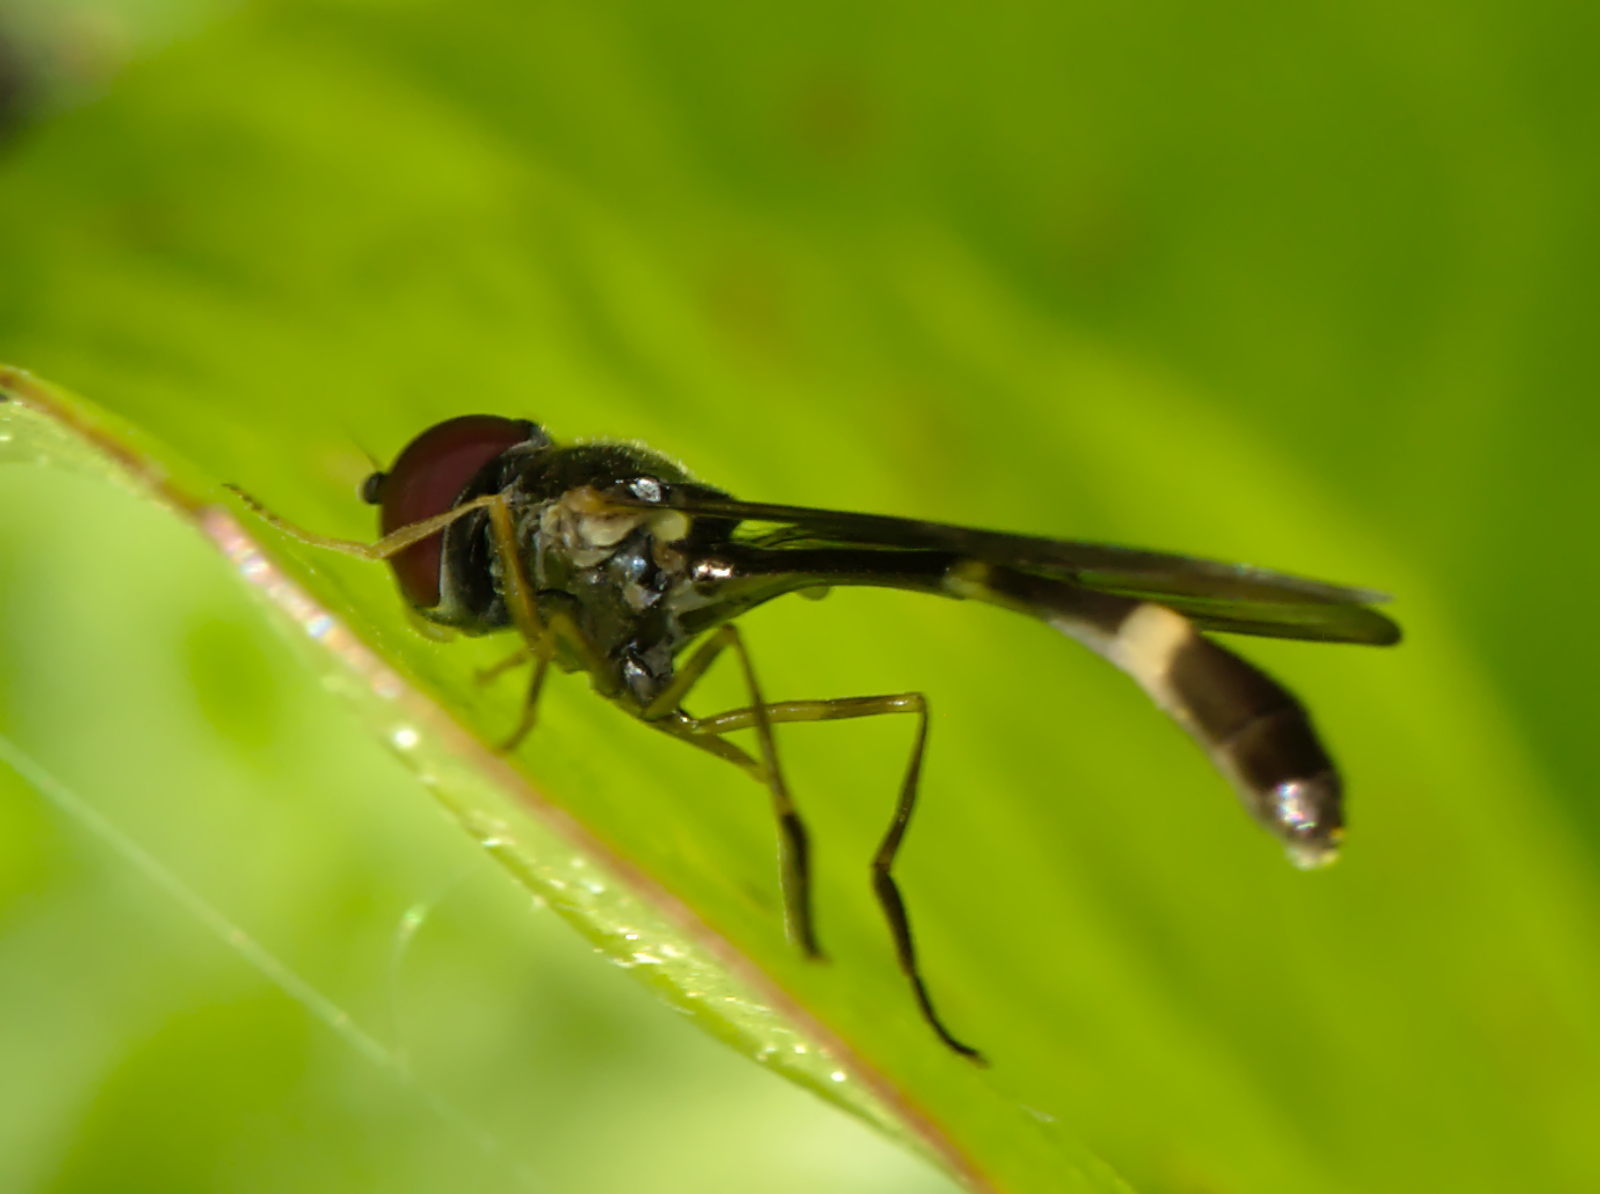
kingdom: Animalia
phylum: Arthropoda
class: Insecta
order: Diptera
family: Syrphidae
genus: Baccha
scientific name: Baccha elongata
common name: Common dainty
